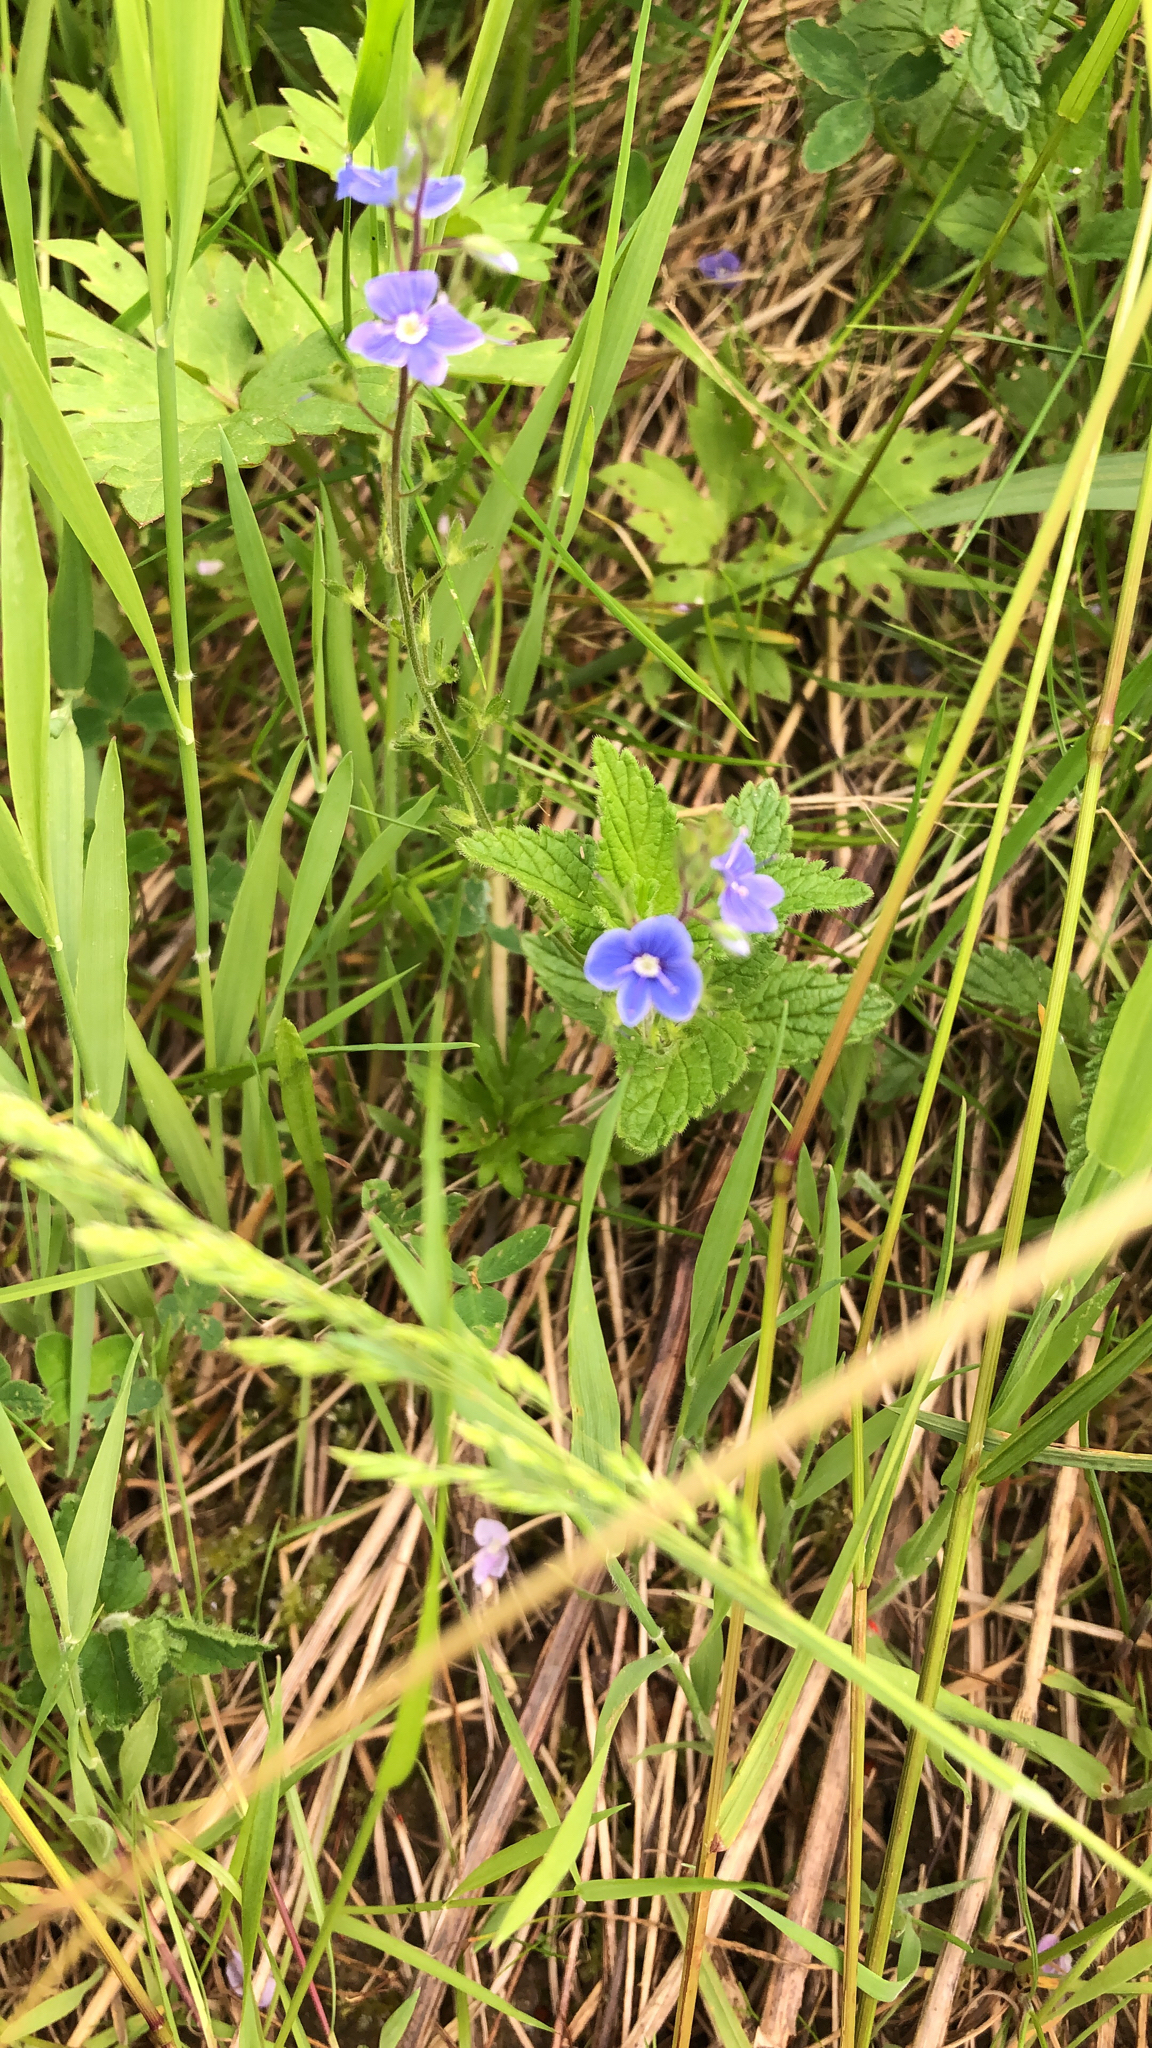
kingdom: Plantae
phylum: Tracheophyta
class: Magnoliopsida
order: Lamiales
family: Plantaginaceae
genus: Veronica
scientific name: Veronica chamaedrys
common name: Germander speedwell
